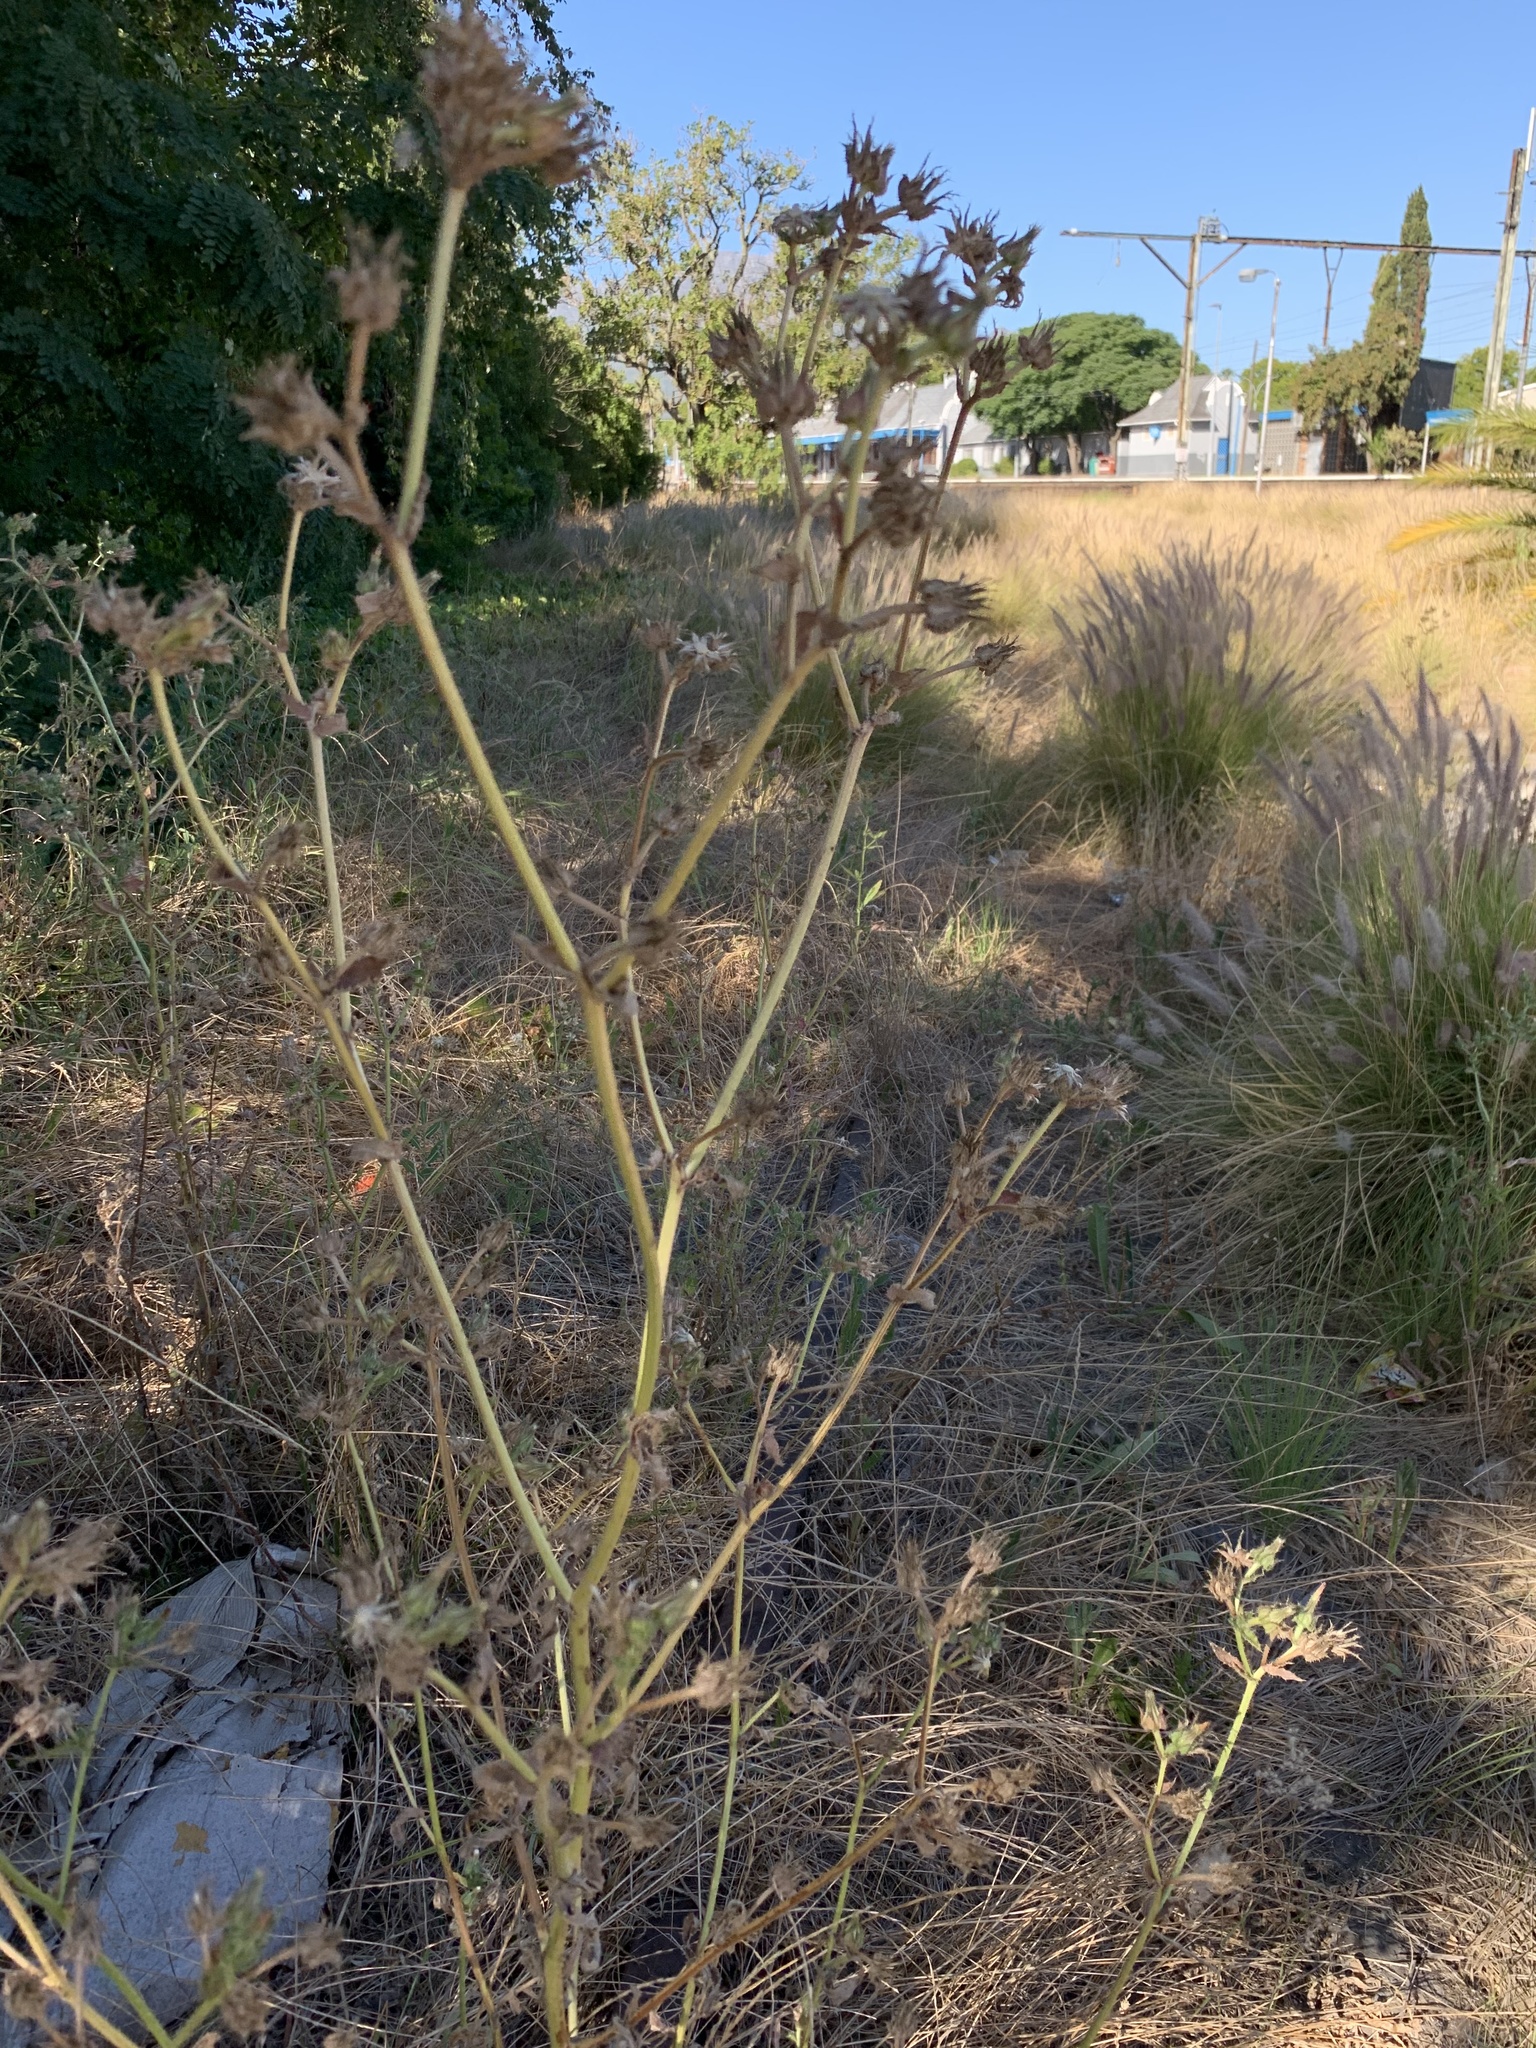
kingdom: Plantae
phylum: Tracheophyta
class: Magnoliopsida
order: Asterales
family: Asteraceae
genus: Helminthotheca
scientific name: Helminthotheca echioides
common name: Ox-tongue
